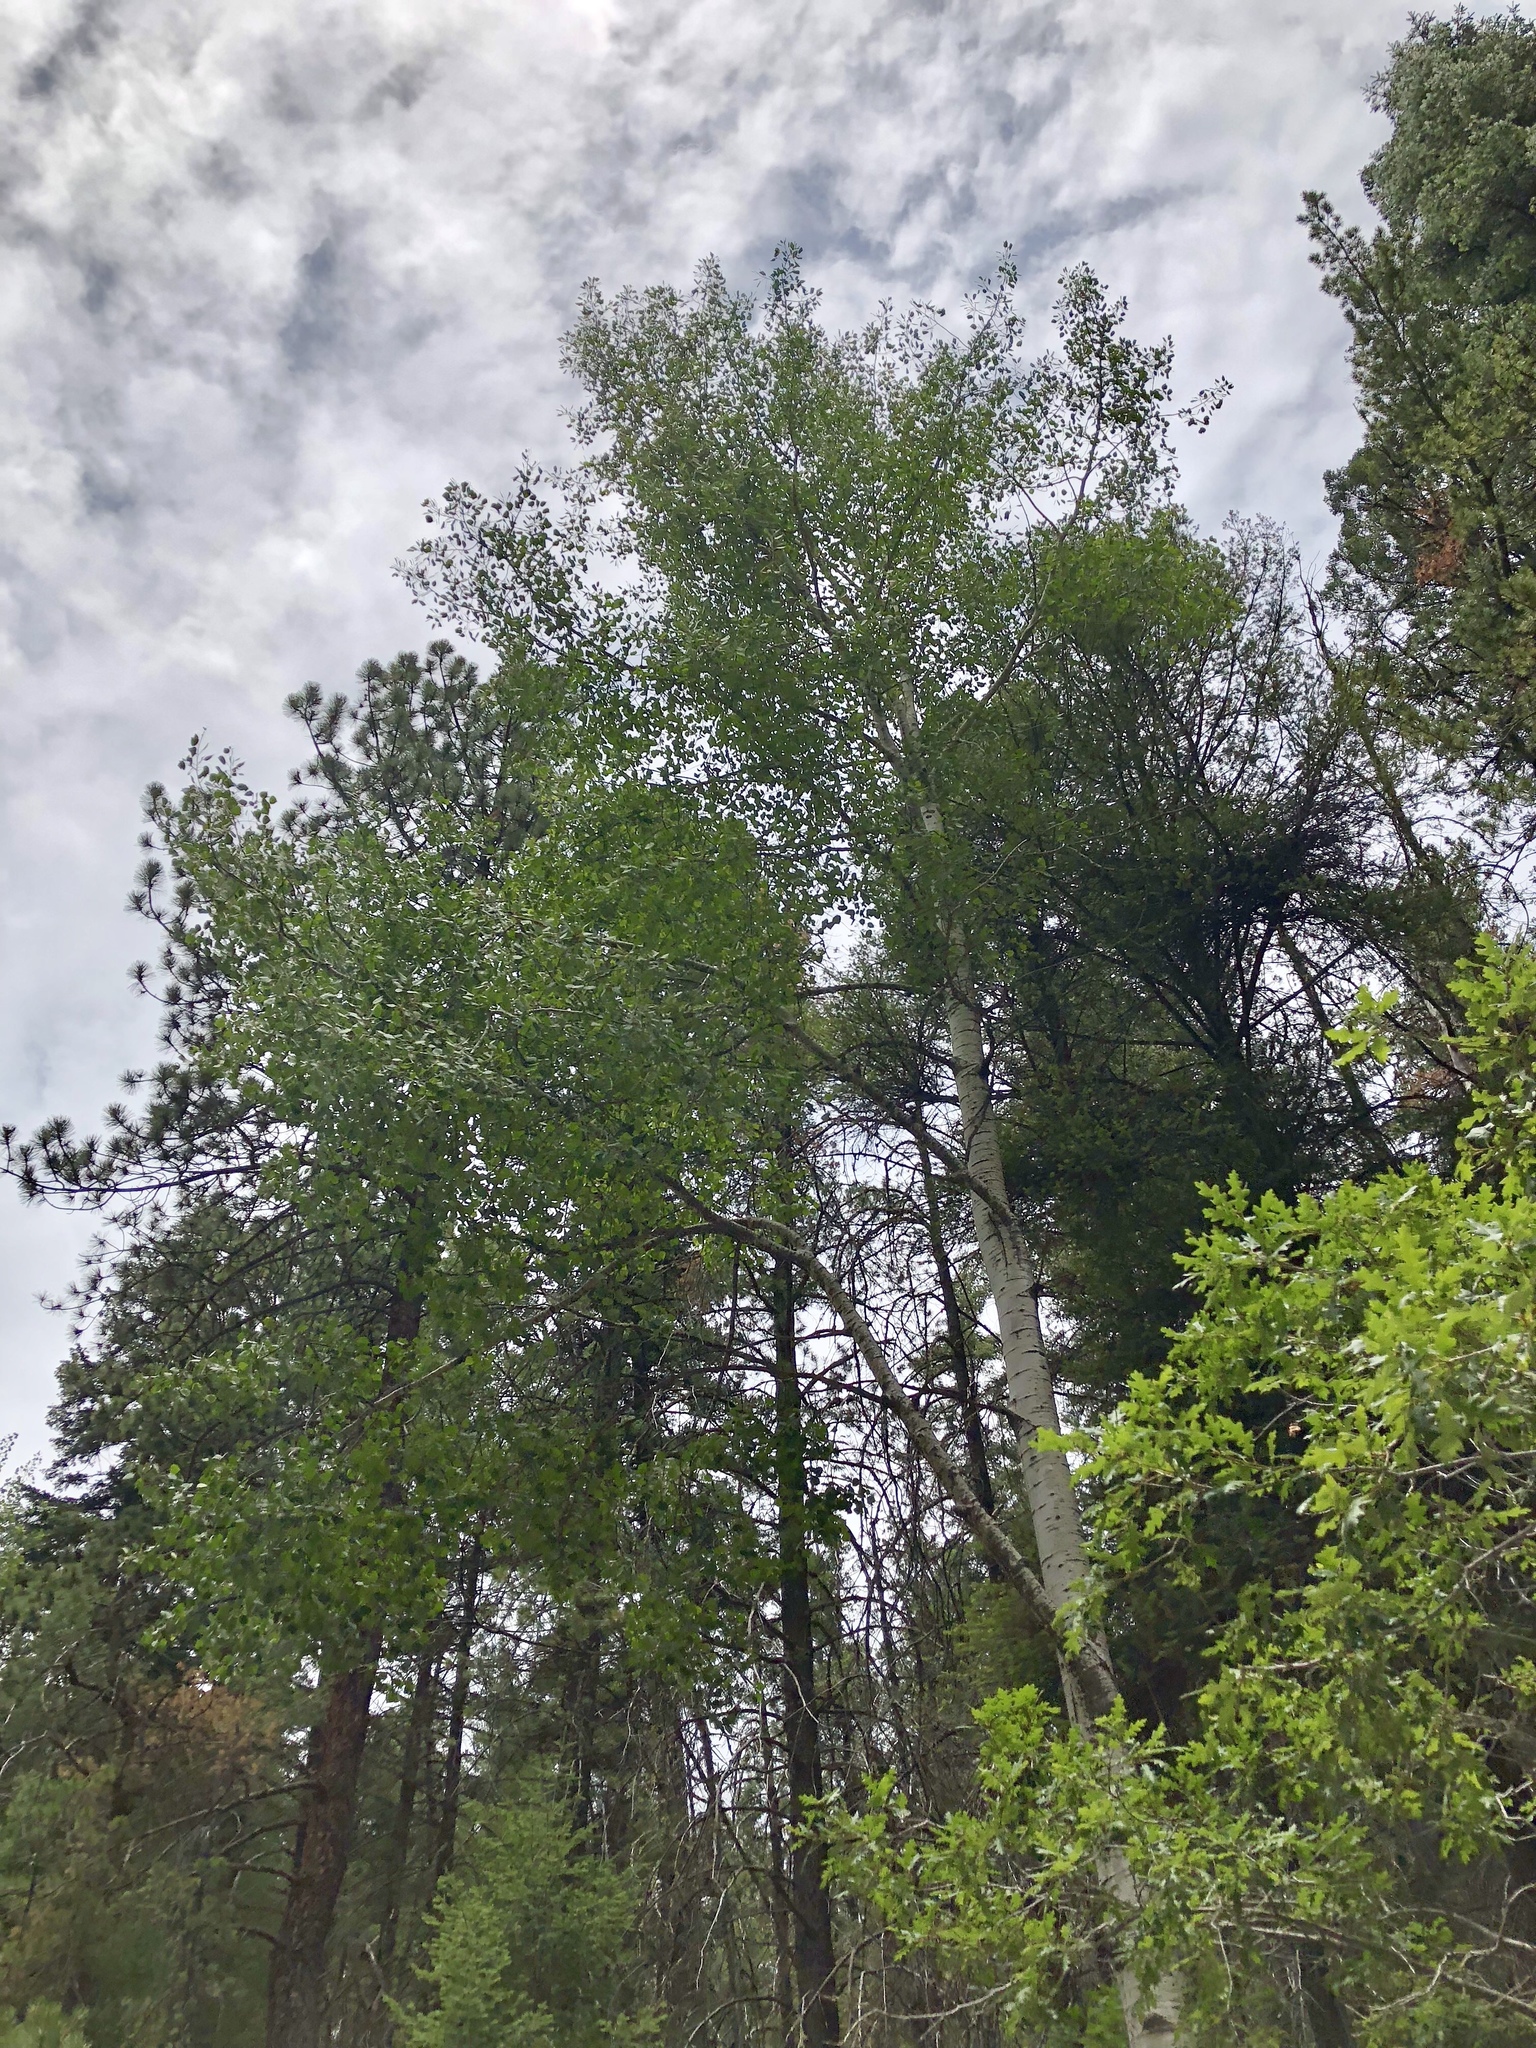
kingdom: Plantae
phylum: Tracheophyta
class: Magnoliopsida
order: Malpighiales
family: Salicaceae
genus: Populus
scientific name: Populus tremuloides
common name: Quaking aspen
